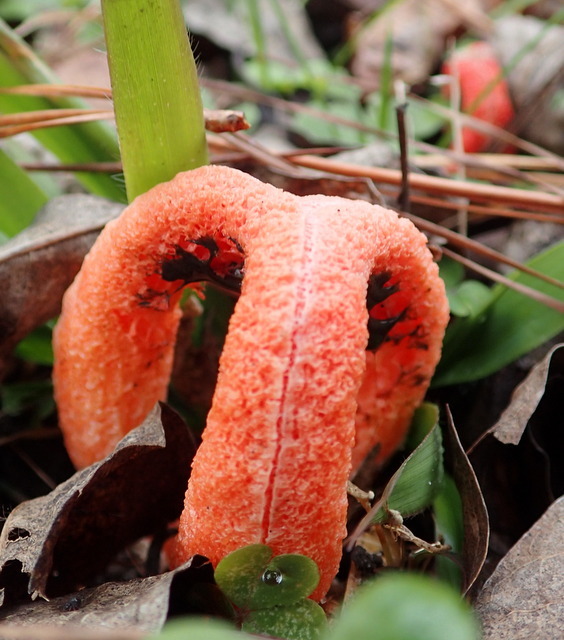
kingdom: Fungi
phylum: Basidiomycota
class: Agaricomycetes
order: Phallales
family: Phallaceae
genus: Clathrus
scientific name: Clathrus columnatus
